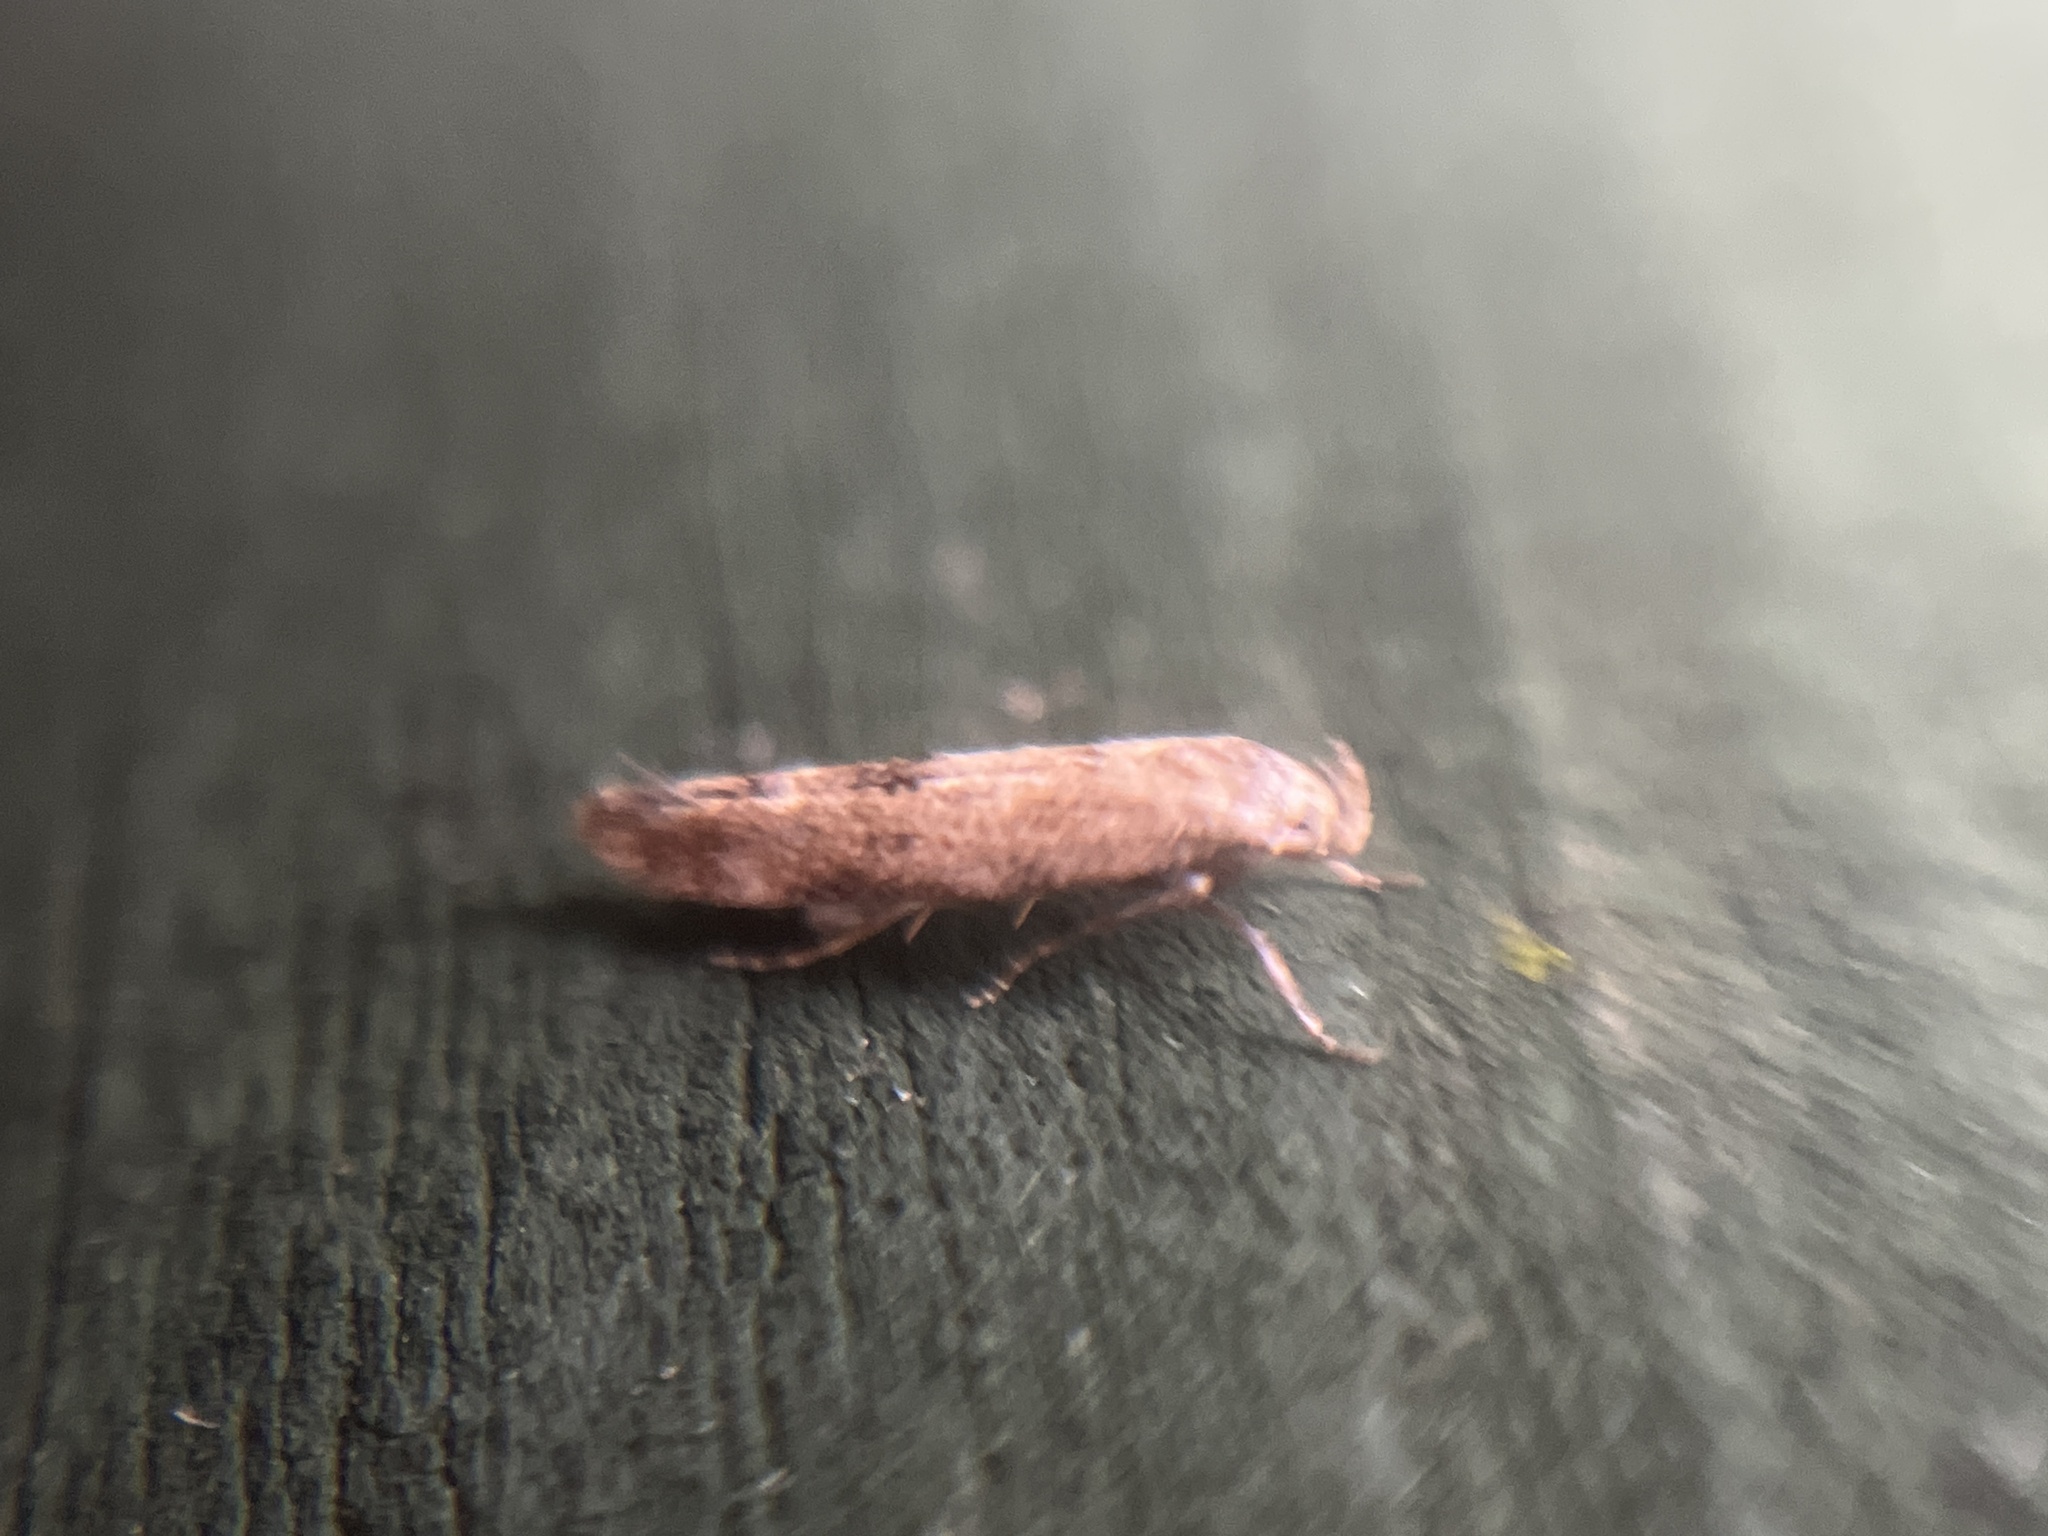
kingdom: Animalia
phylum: Arthropoda
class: Insecta
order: Lepidoptera
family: Momphidae
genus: Mompha
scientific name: Mompha epilobiella
